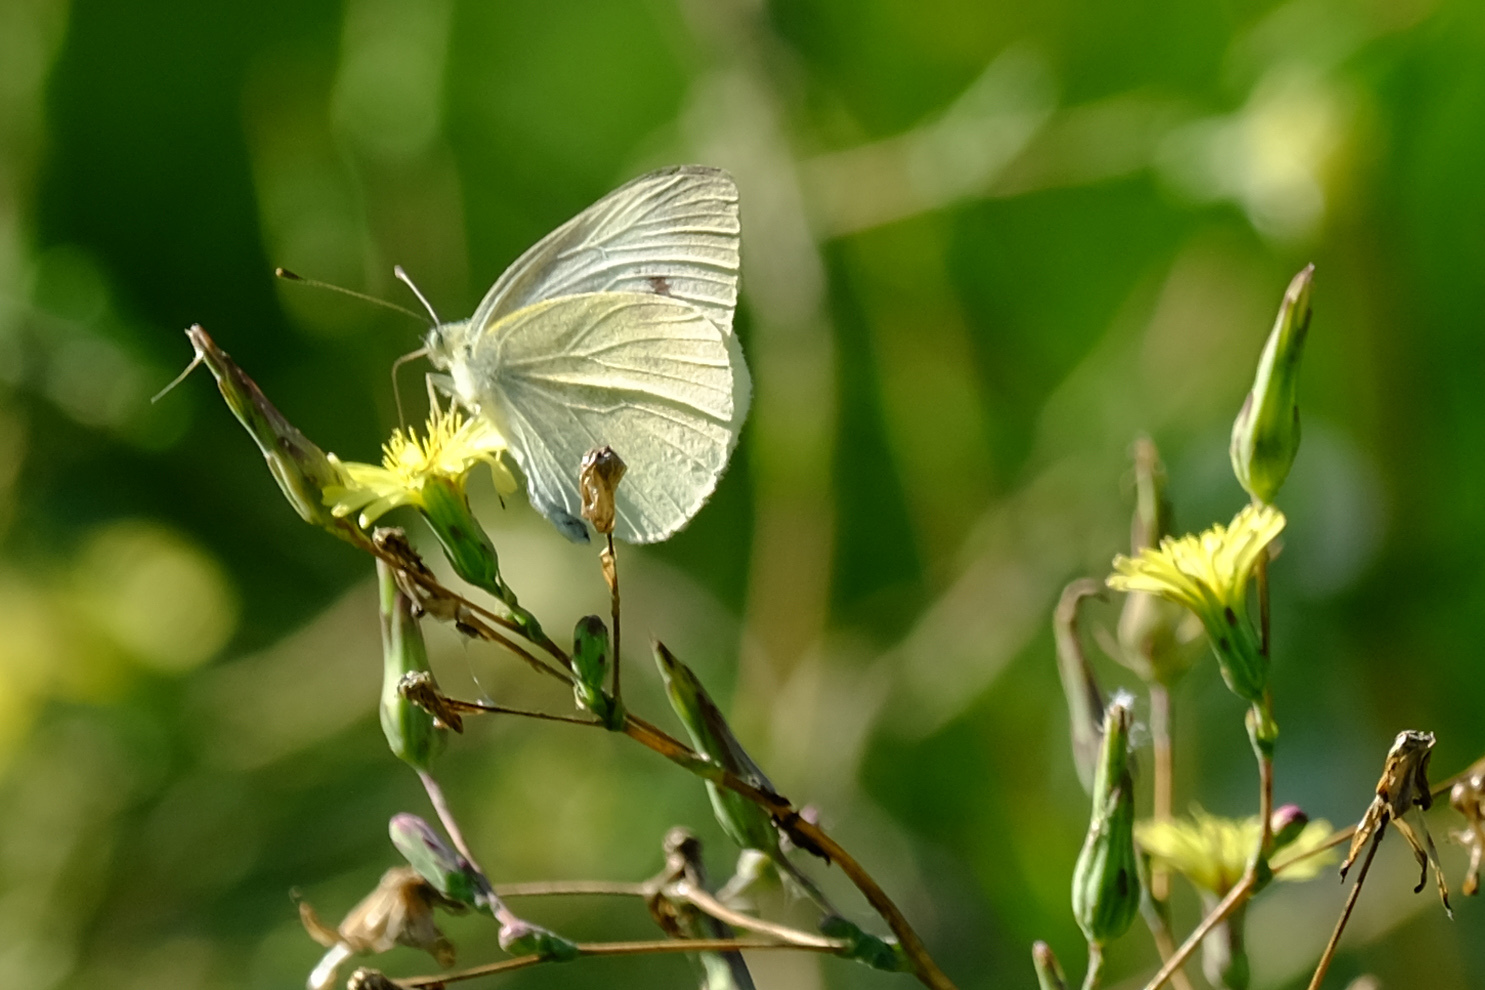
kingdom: Animalia
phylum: Arthropoda
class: Insecta
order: Lepidoptera
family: Pieridae
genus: Pieris
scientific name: Pieris rapae
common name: Small white
